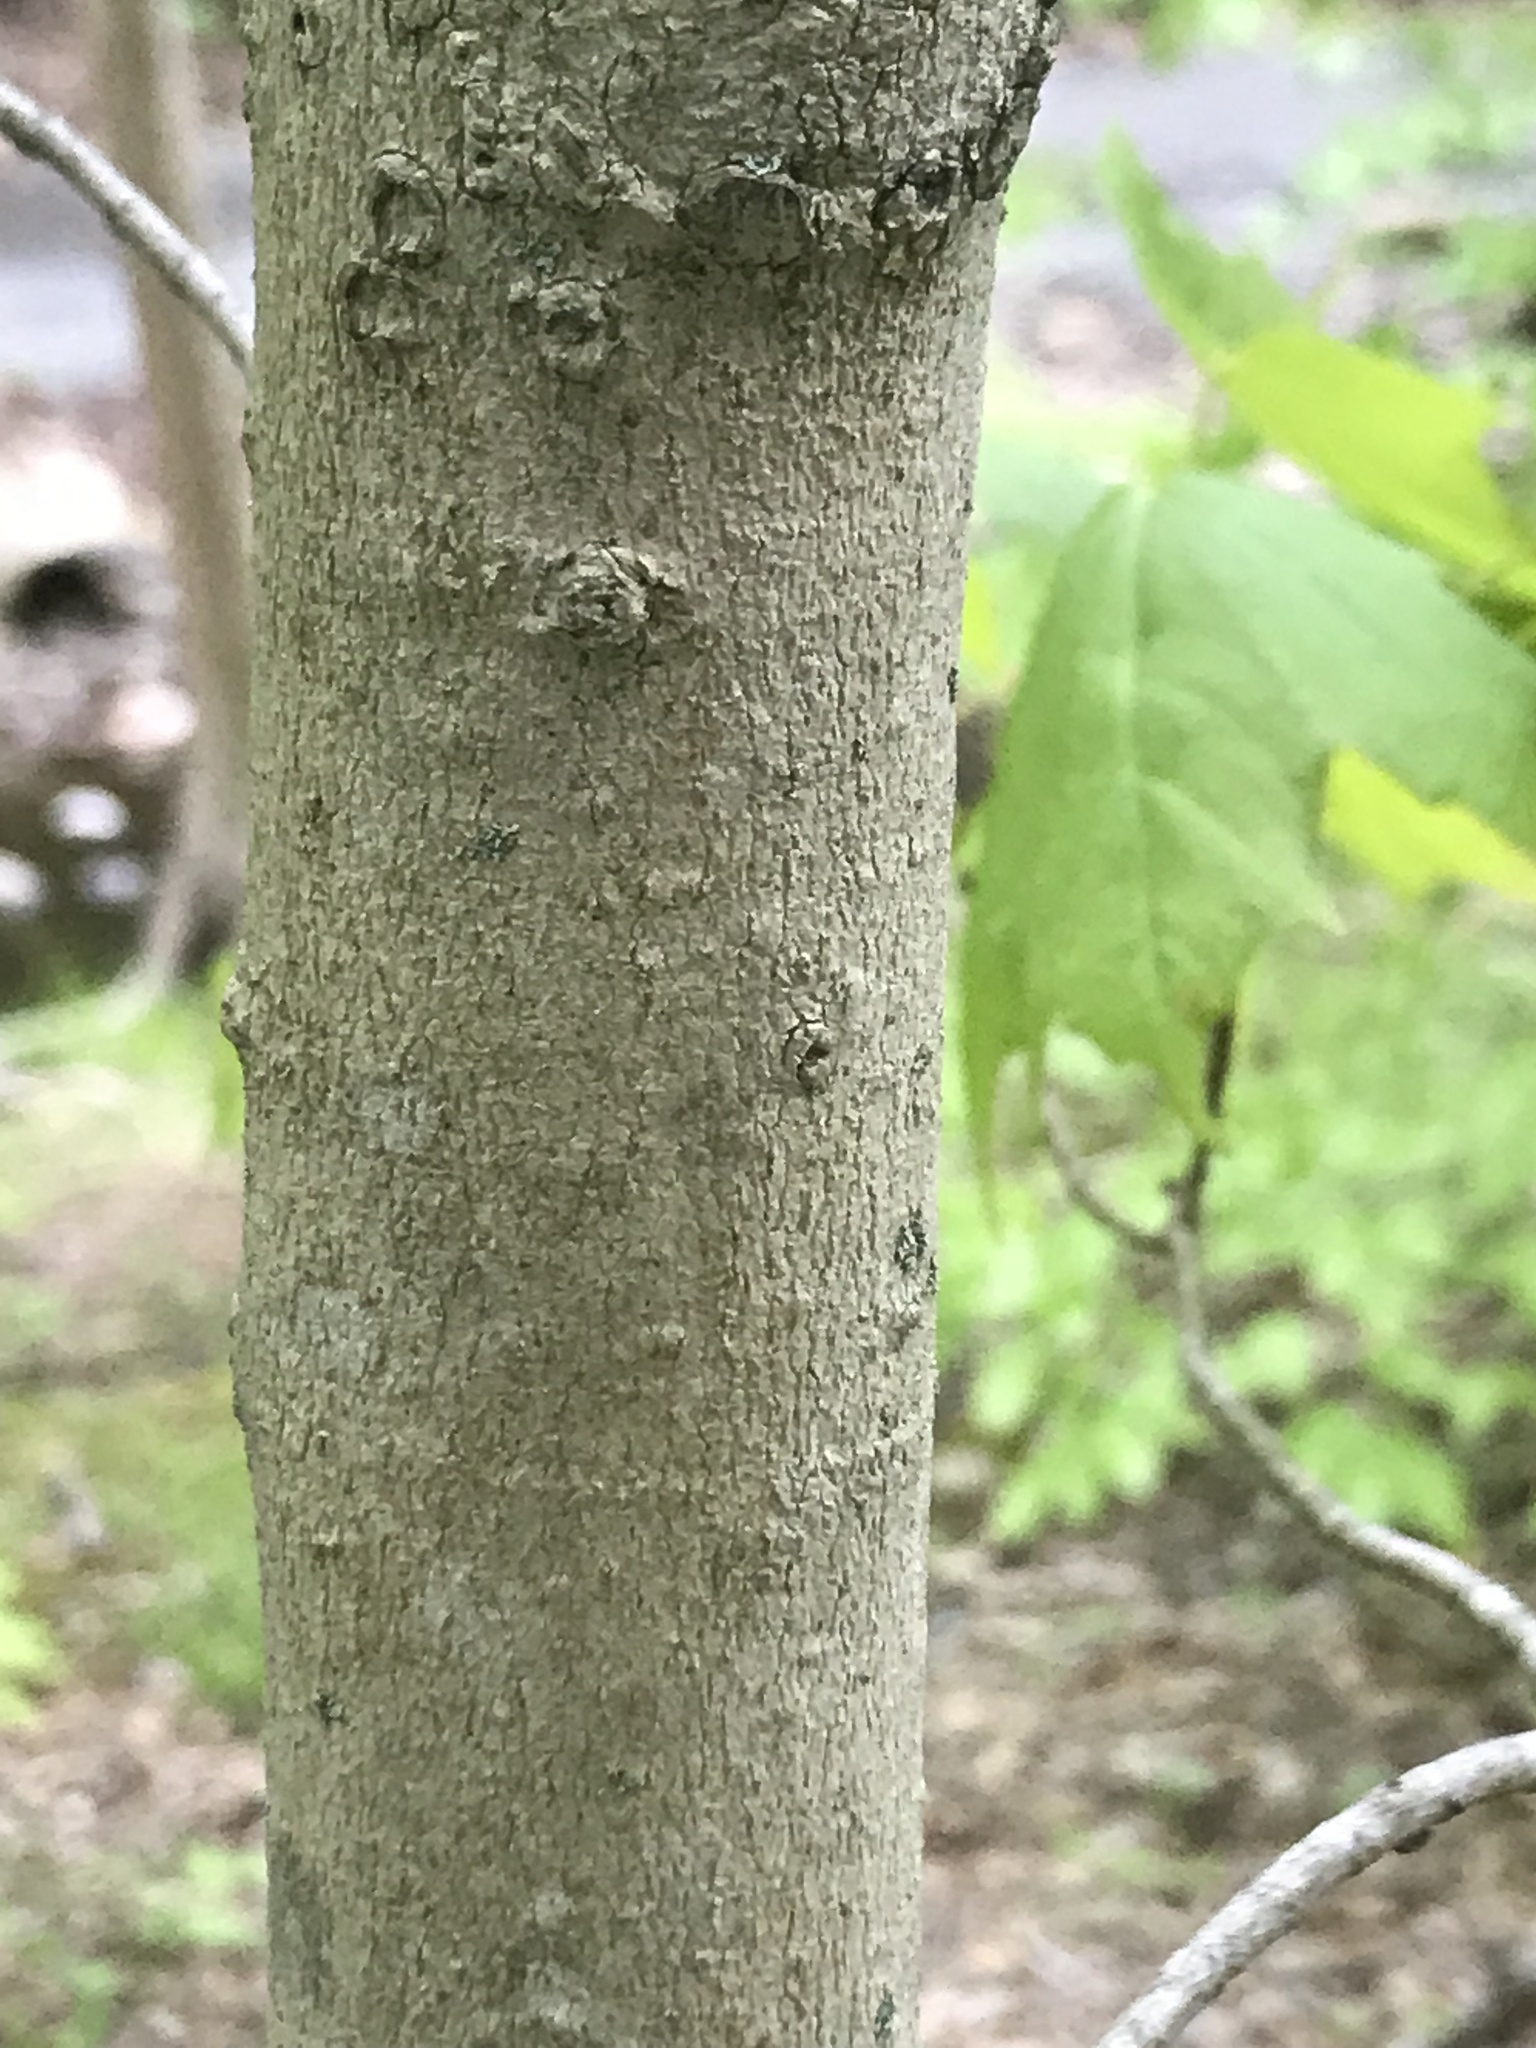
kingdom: Plantae
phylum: Tracheophyta
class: Magnoliopsida
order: Sapindales
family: Sapindaceae
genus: Acer
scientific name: Acer saccharum
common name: Sugar maple
